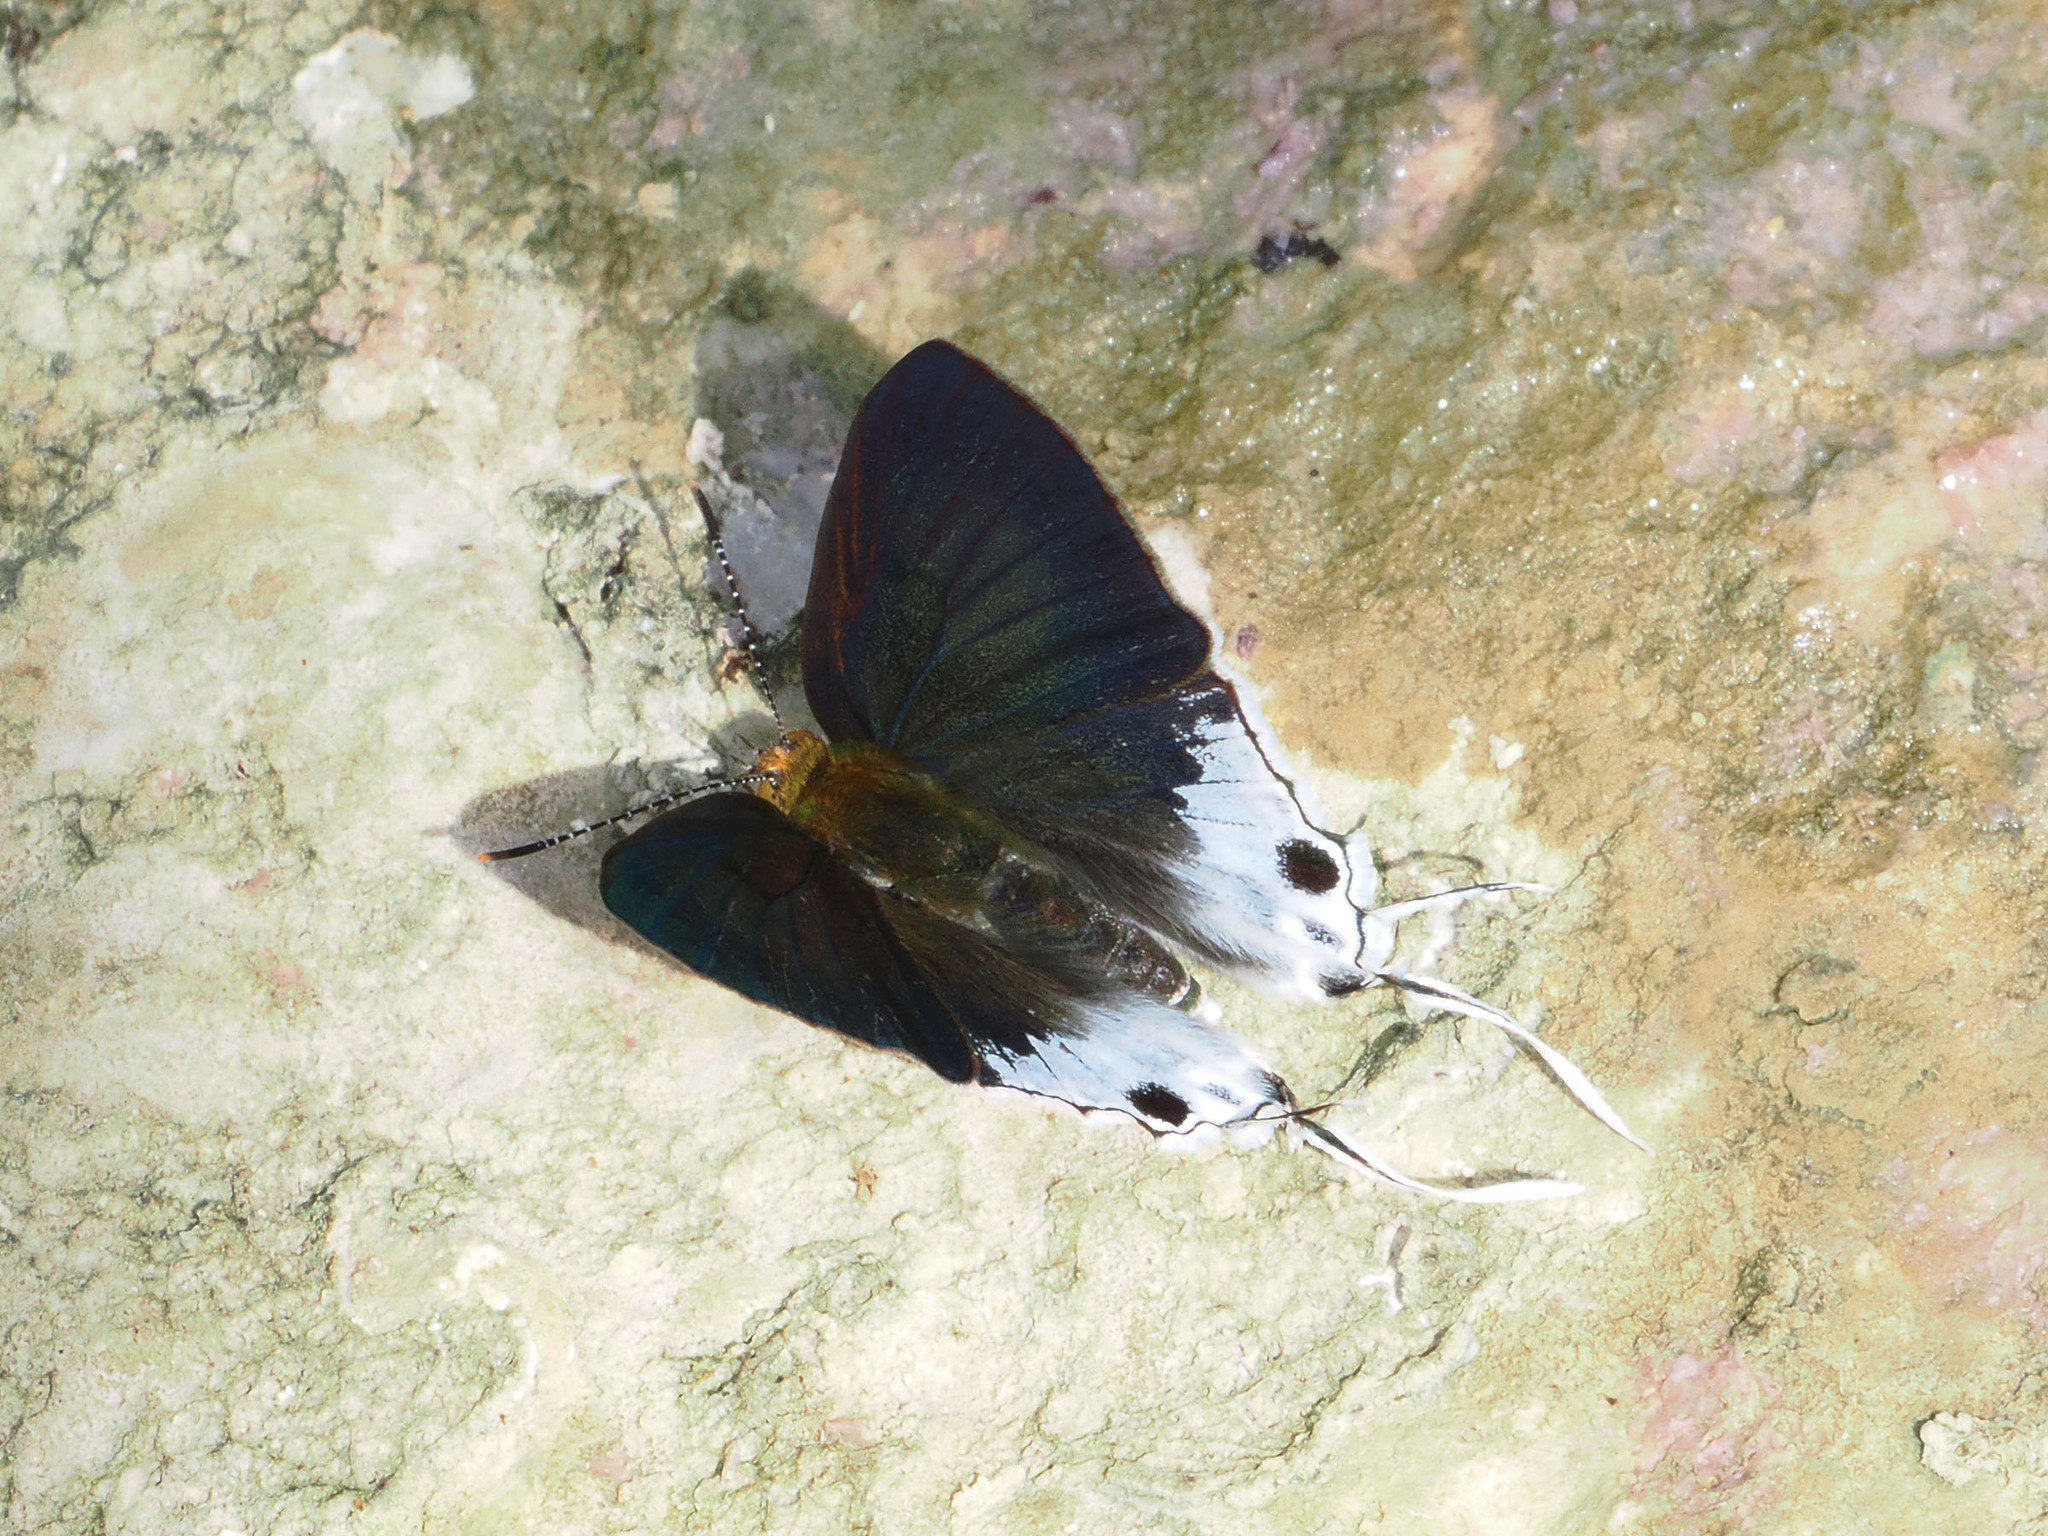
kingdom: Animalia
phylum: Arthropoda
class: Insecta
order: Lepidoptera
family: Lycaenidae
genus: Hypolycaena
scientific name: Hypolycaena sipylus
